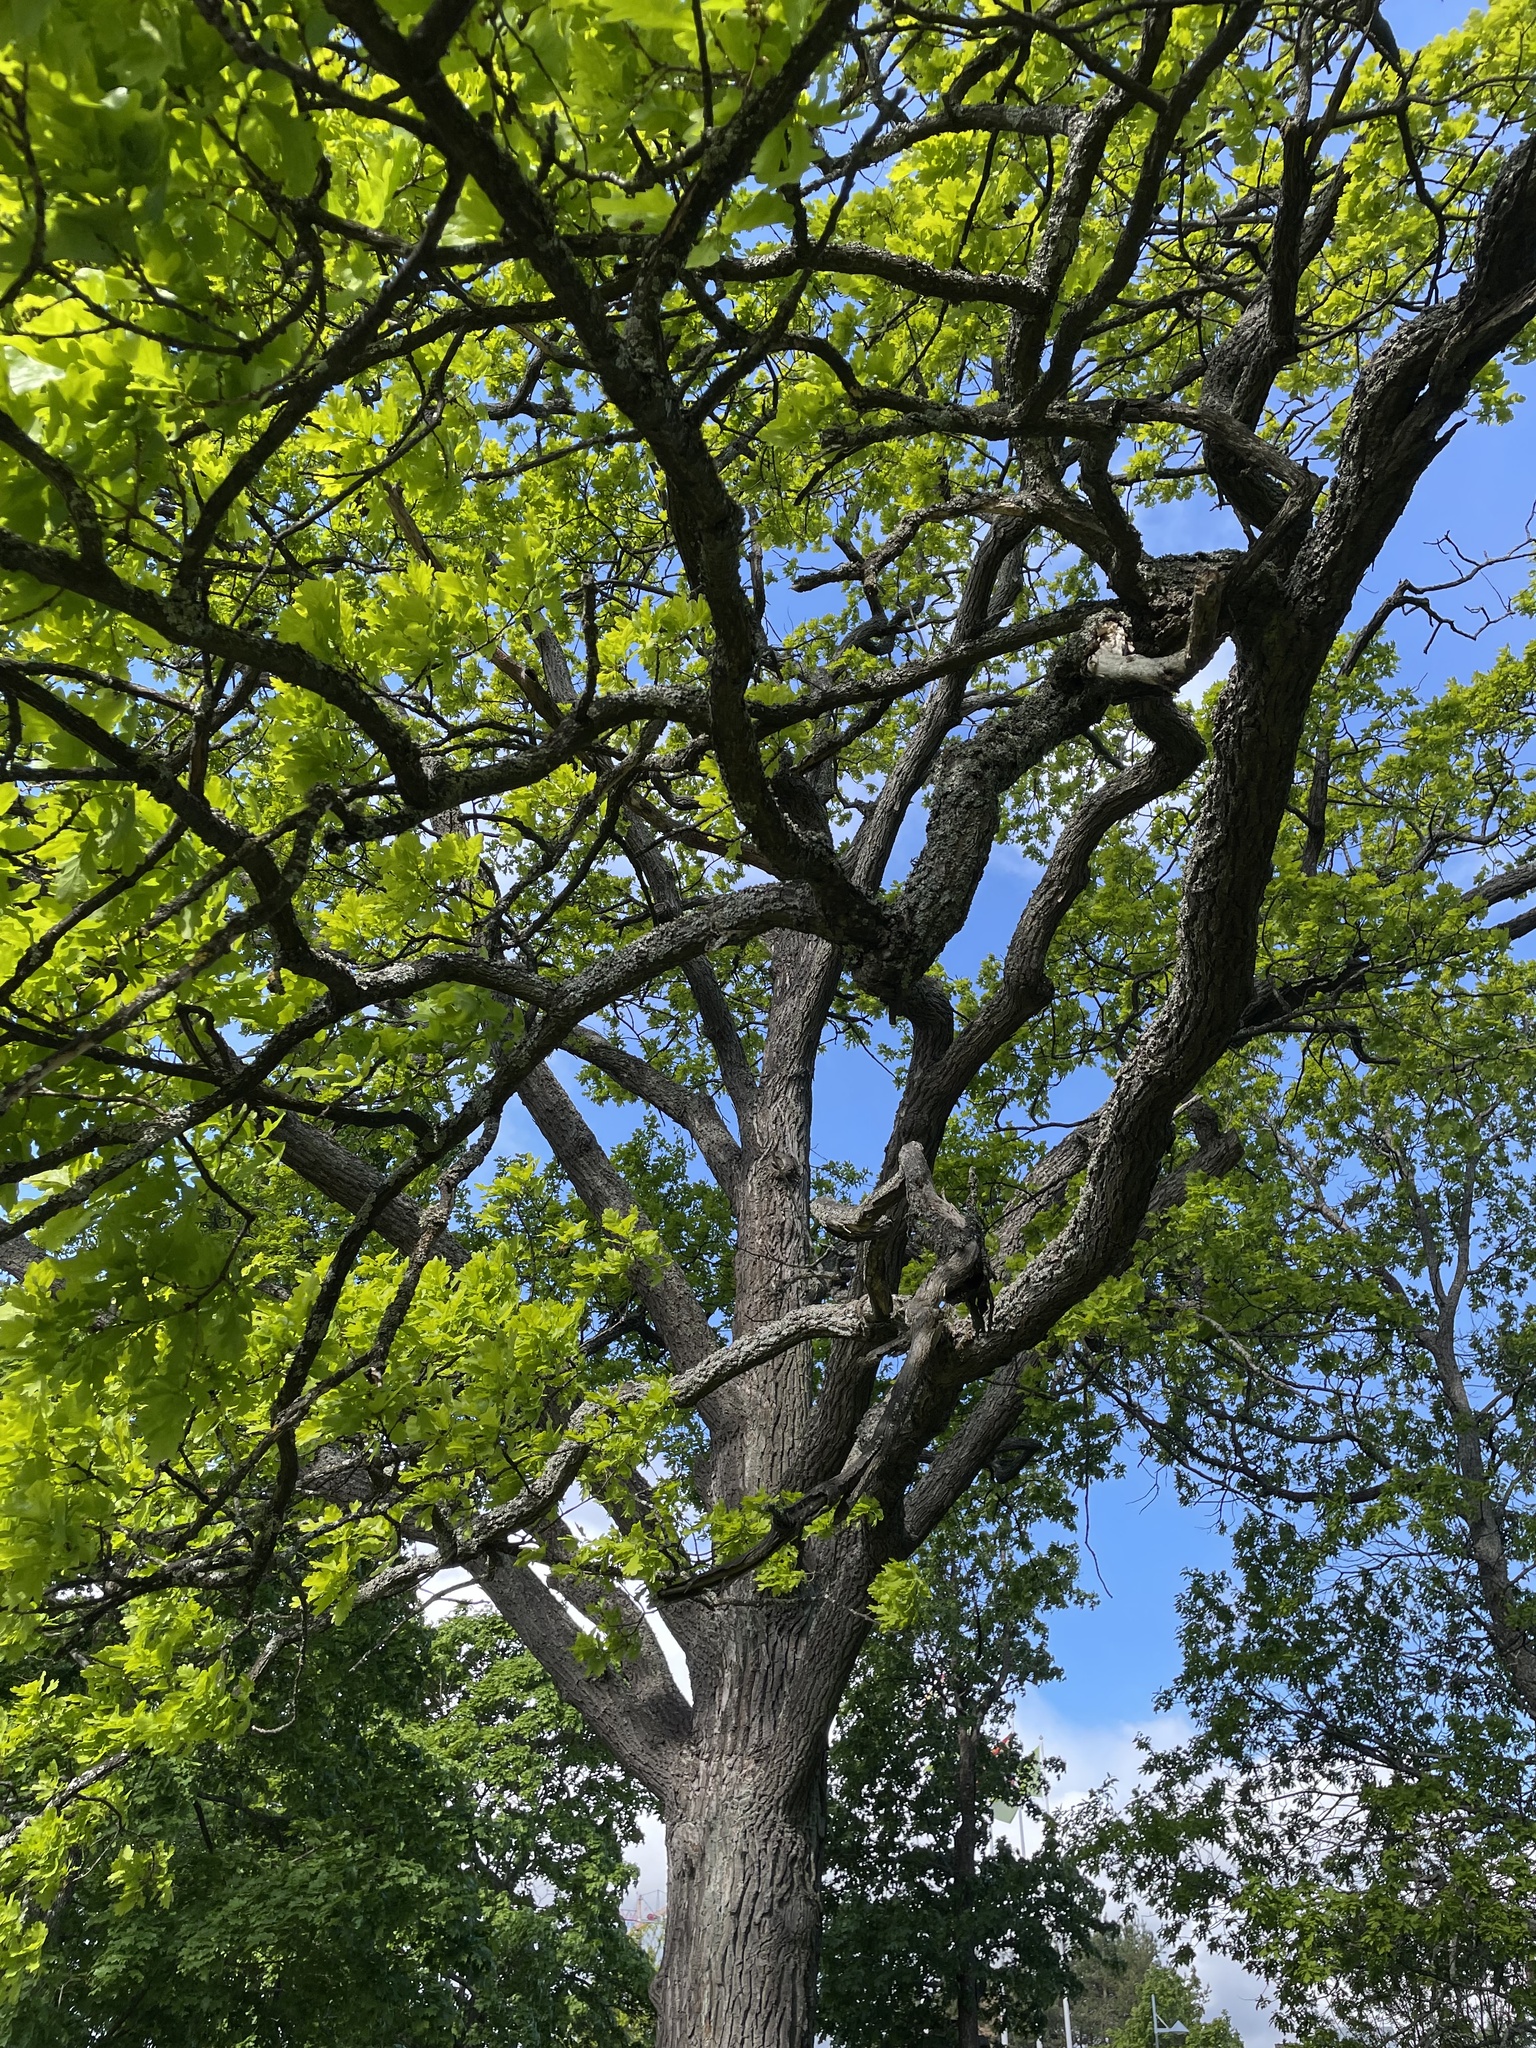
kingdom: Plantae
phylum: Tracheophyta
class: Magnoliopsida
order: Fagales
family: Fagaceae
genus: Quercus
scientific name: Quercus robur
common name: Pedunculate oak
